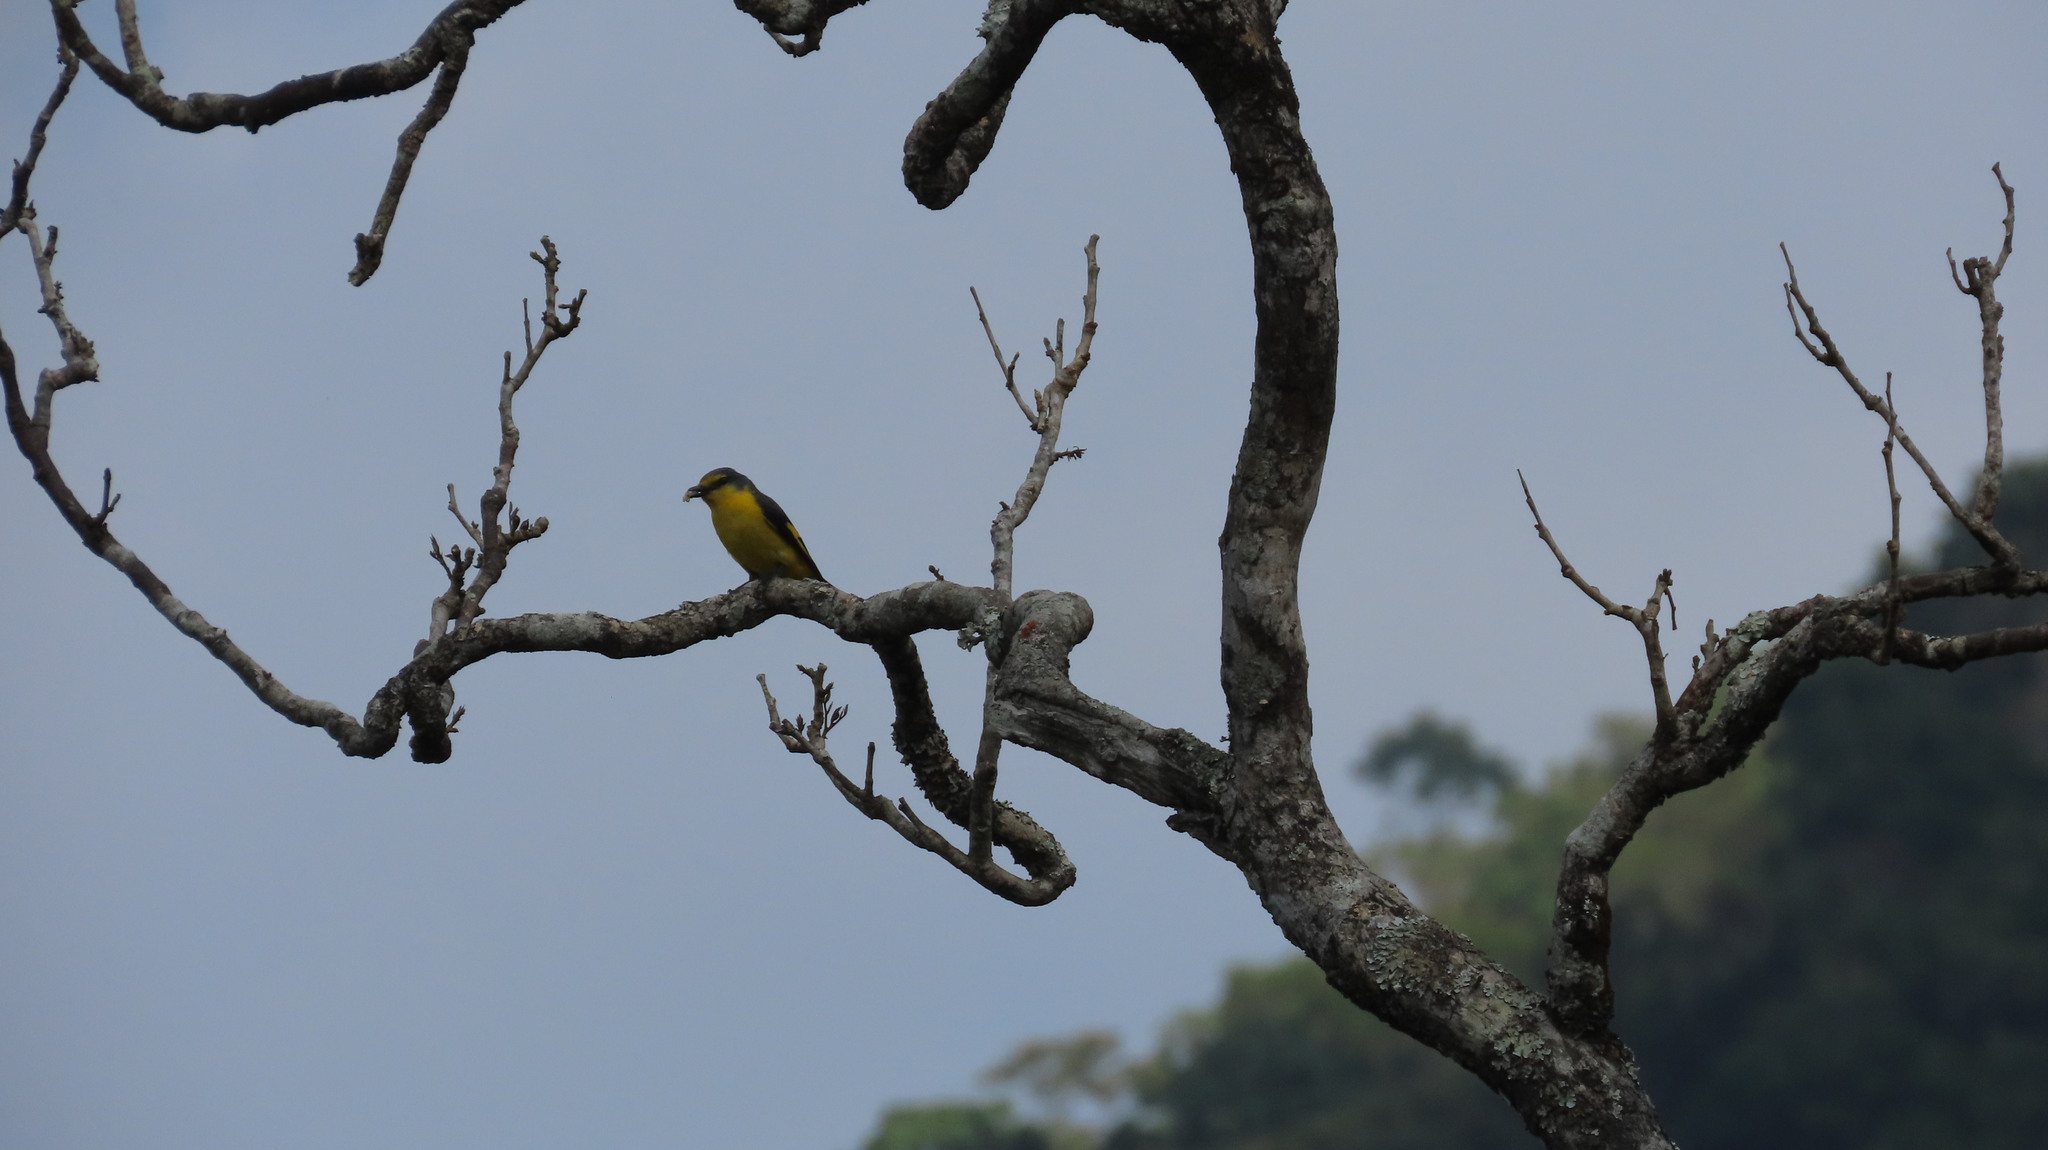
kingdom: Animalia
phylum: Chordata
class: Aves
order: Passeriformes
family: Campephagidae
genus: Pericrocotus
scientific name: Pericrocotus flammeus
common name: Orange minivet
